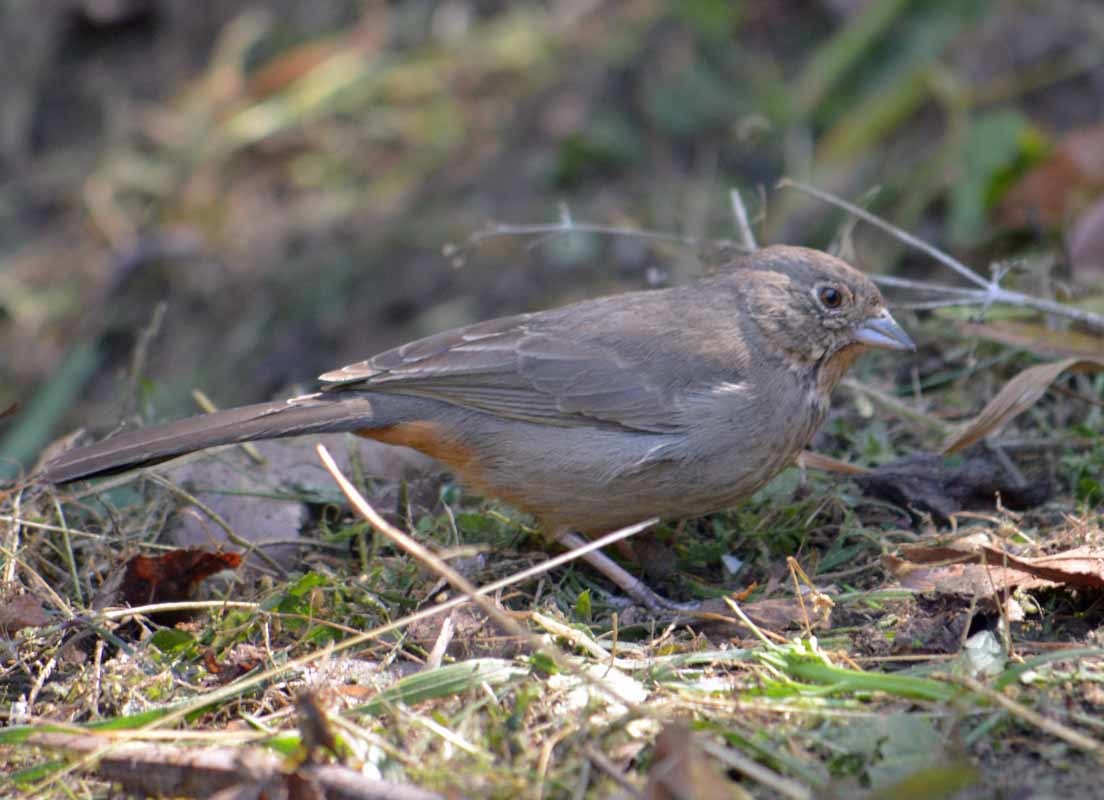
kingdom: Animalia
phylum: Chordata
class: Aves
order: Passeriformes
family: Passerellidae
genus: Melozone
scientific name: Melozone fusca
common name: Canyon towhee
